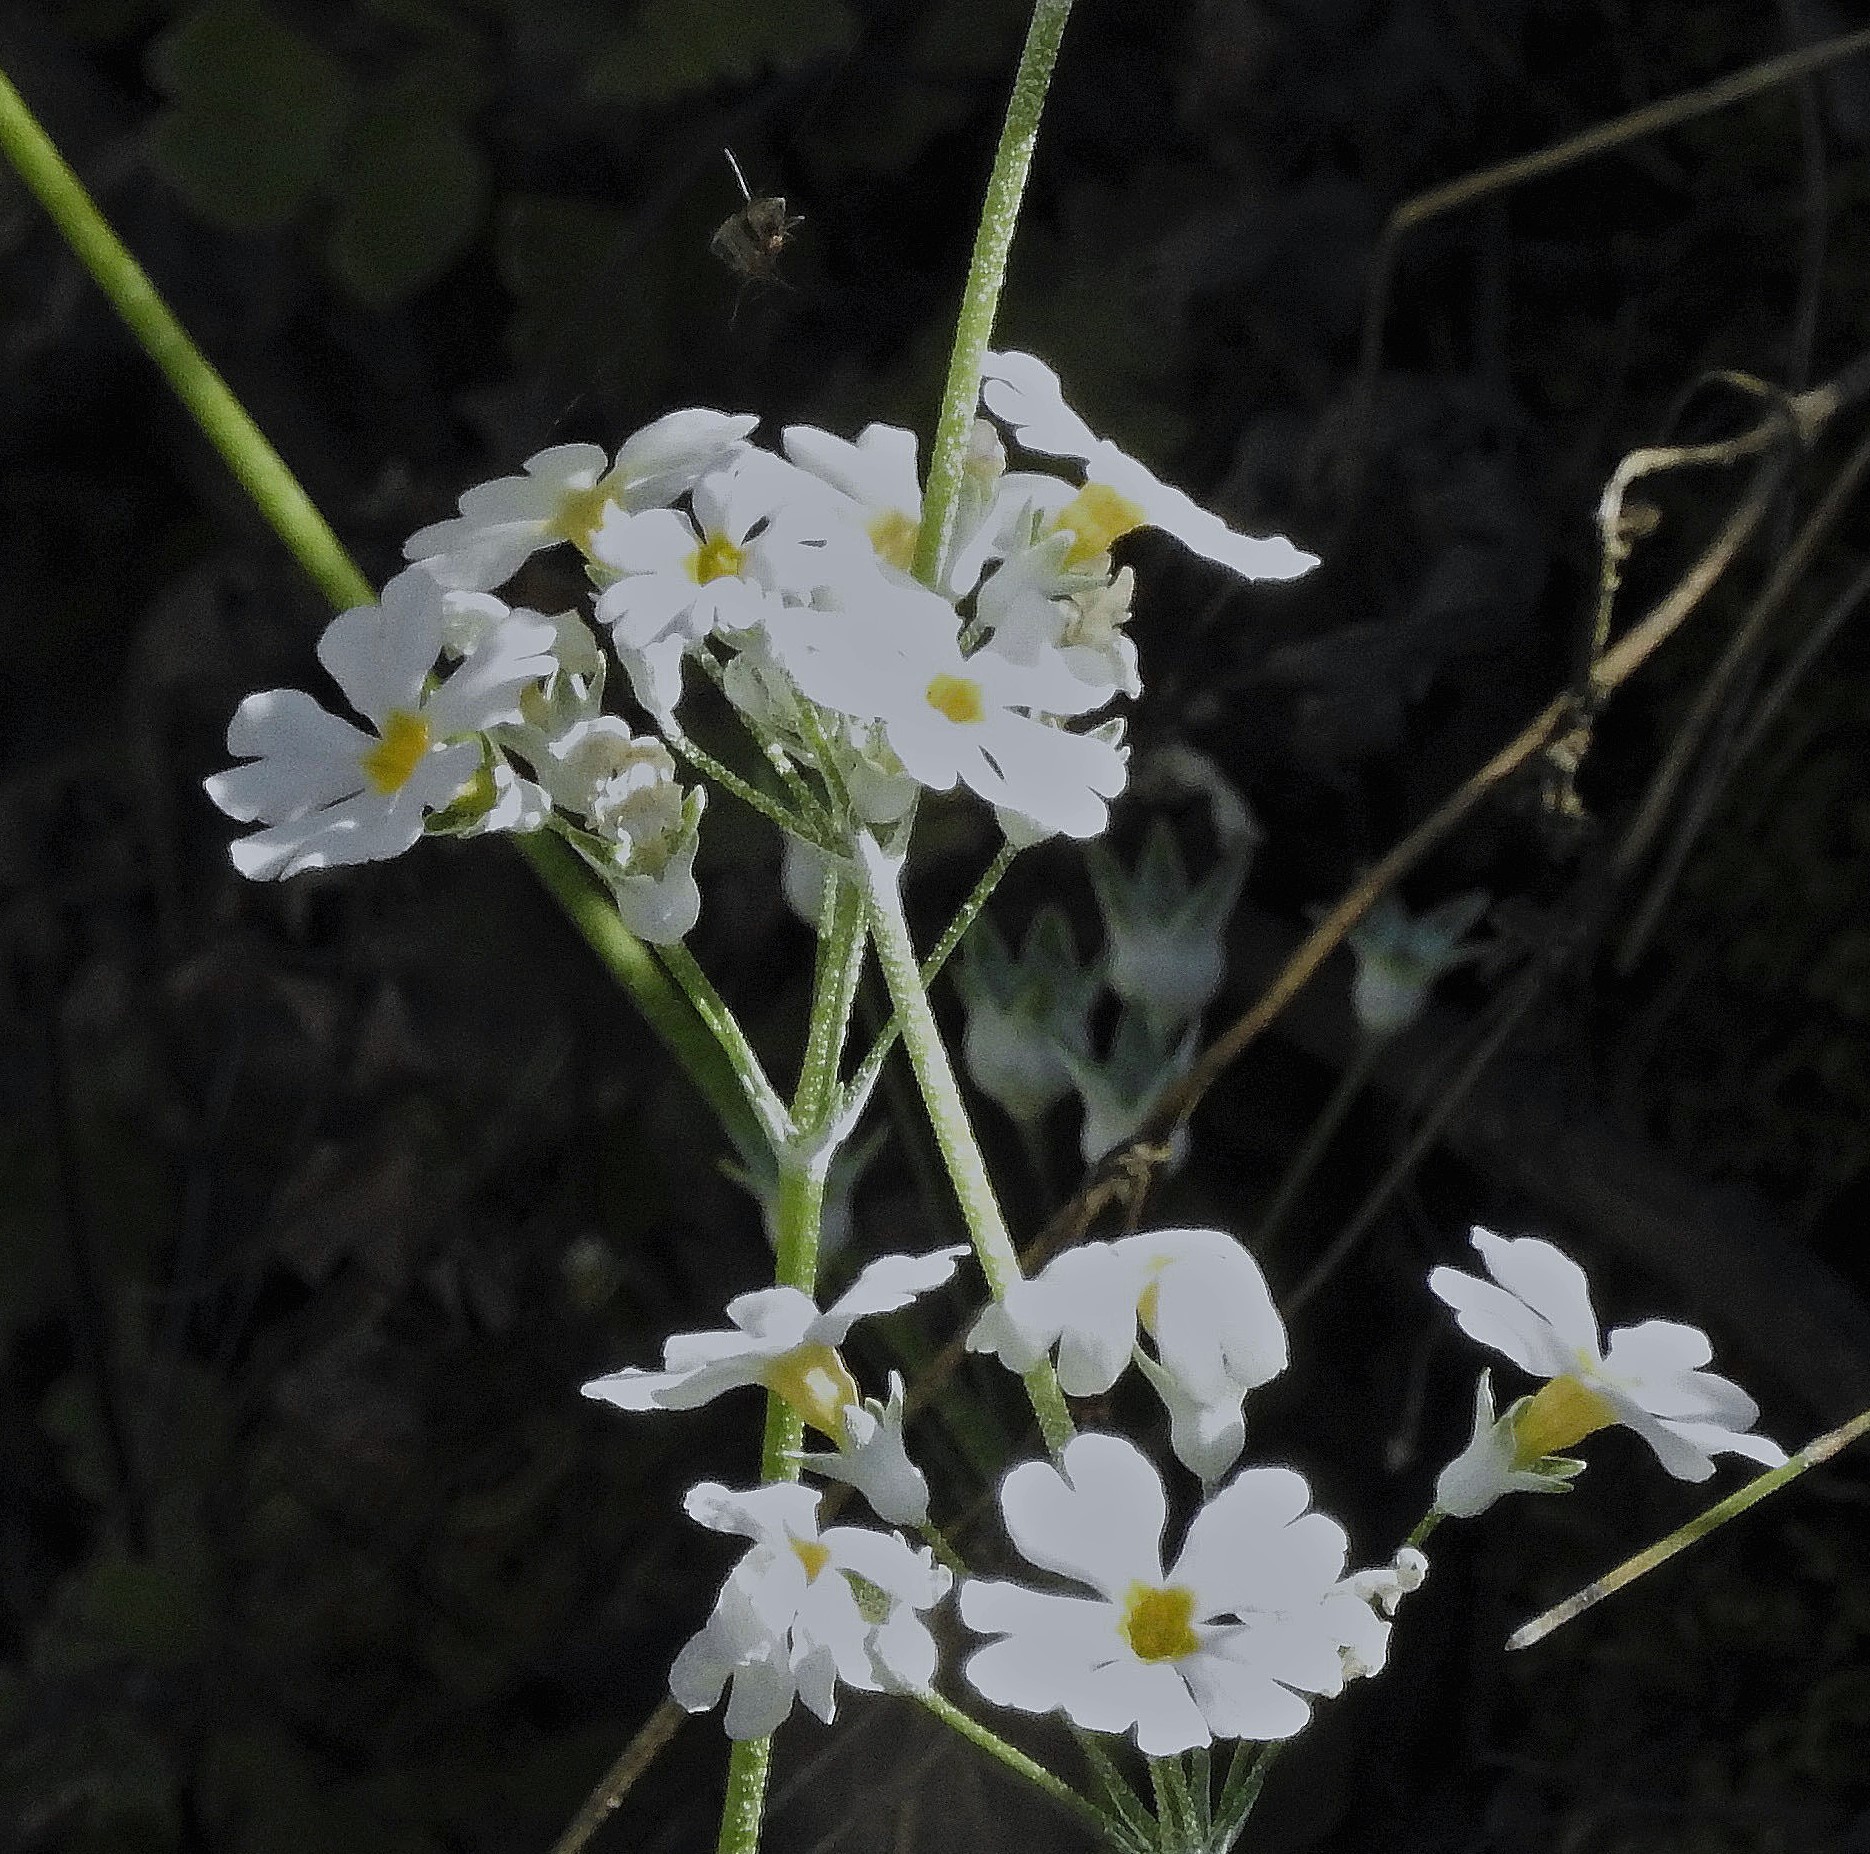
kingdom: Plantae
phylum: Tracheophyta
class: Magnoliopsida
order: Ericales
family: Primulaceae
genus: Primula
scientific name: Primula malacoides
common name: Baby primrose
